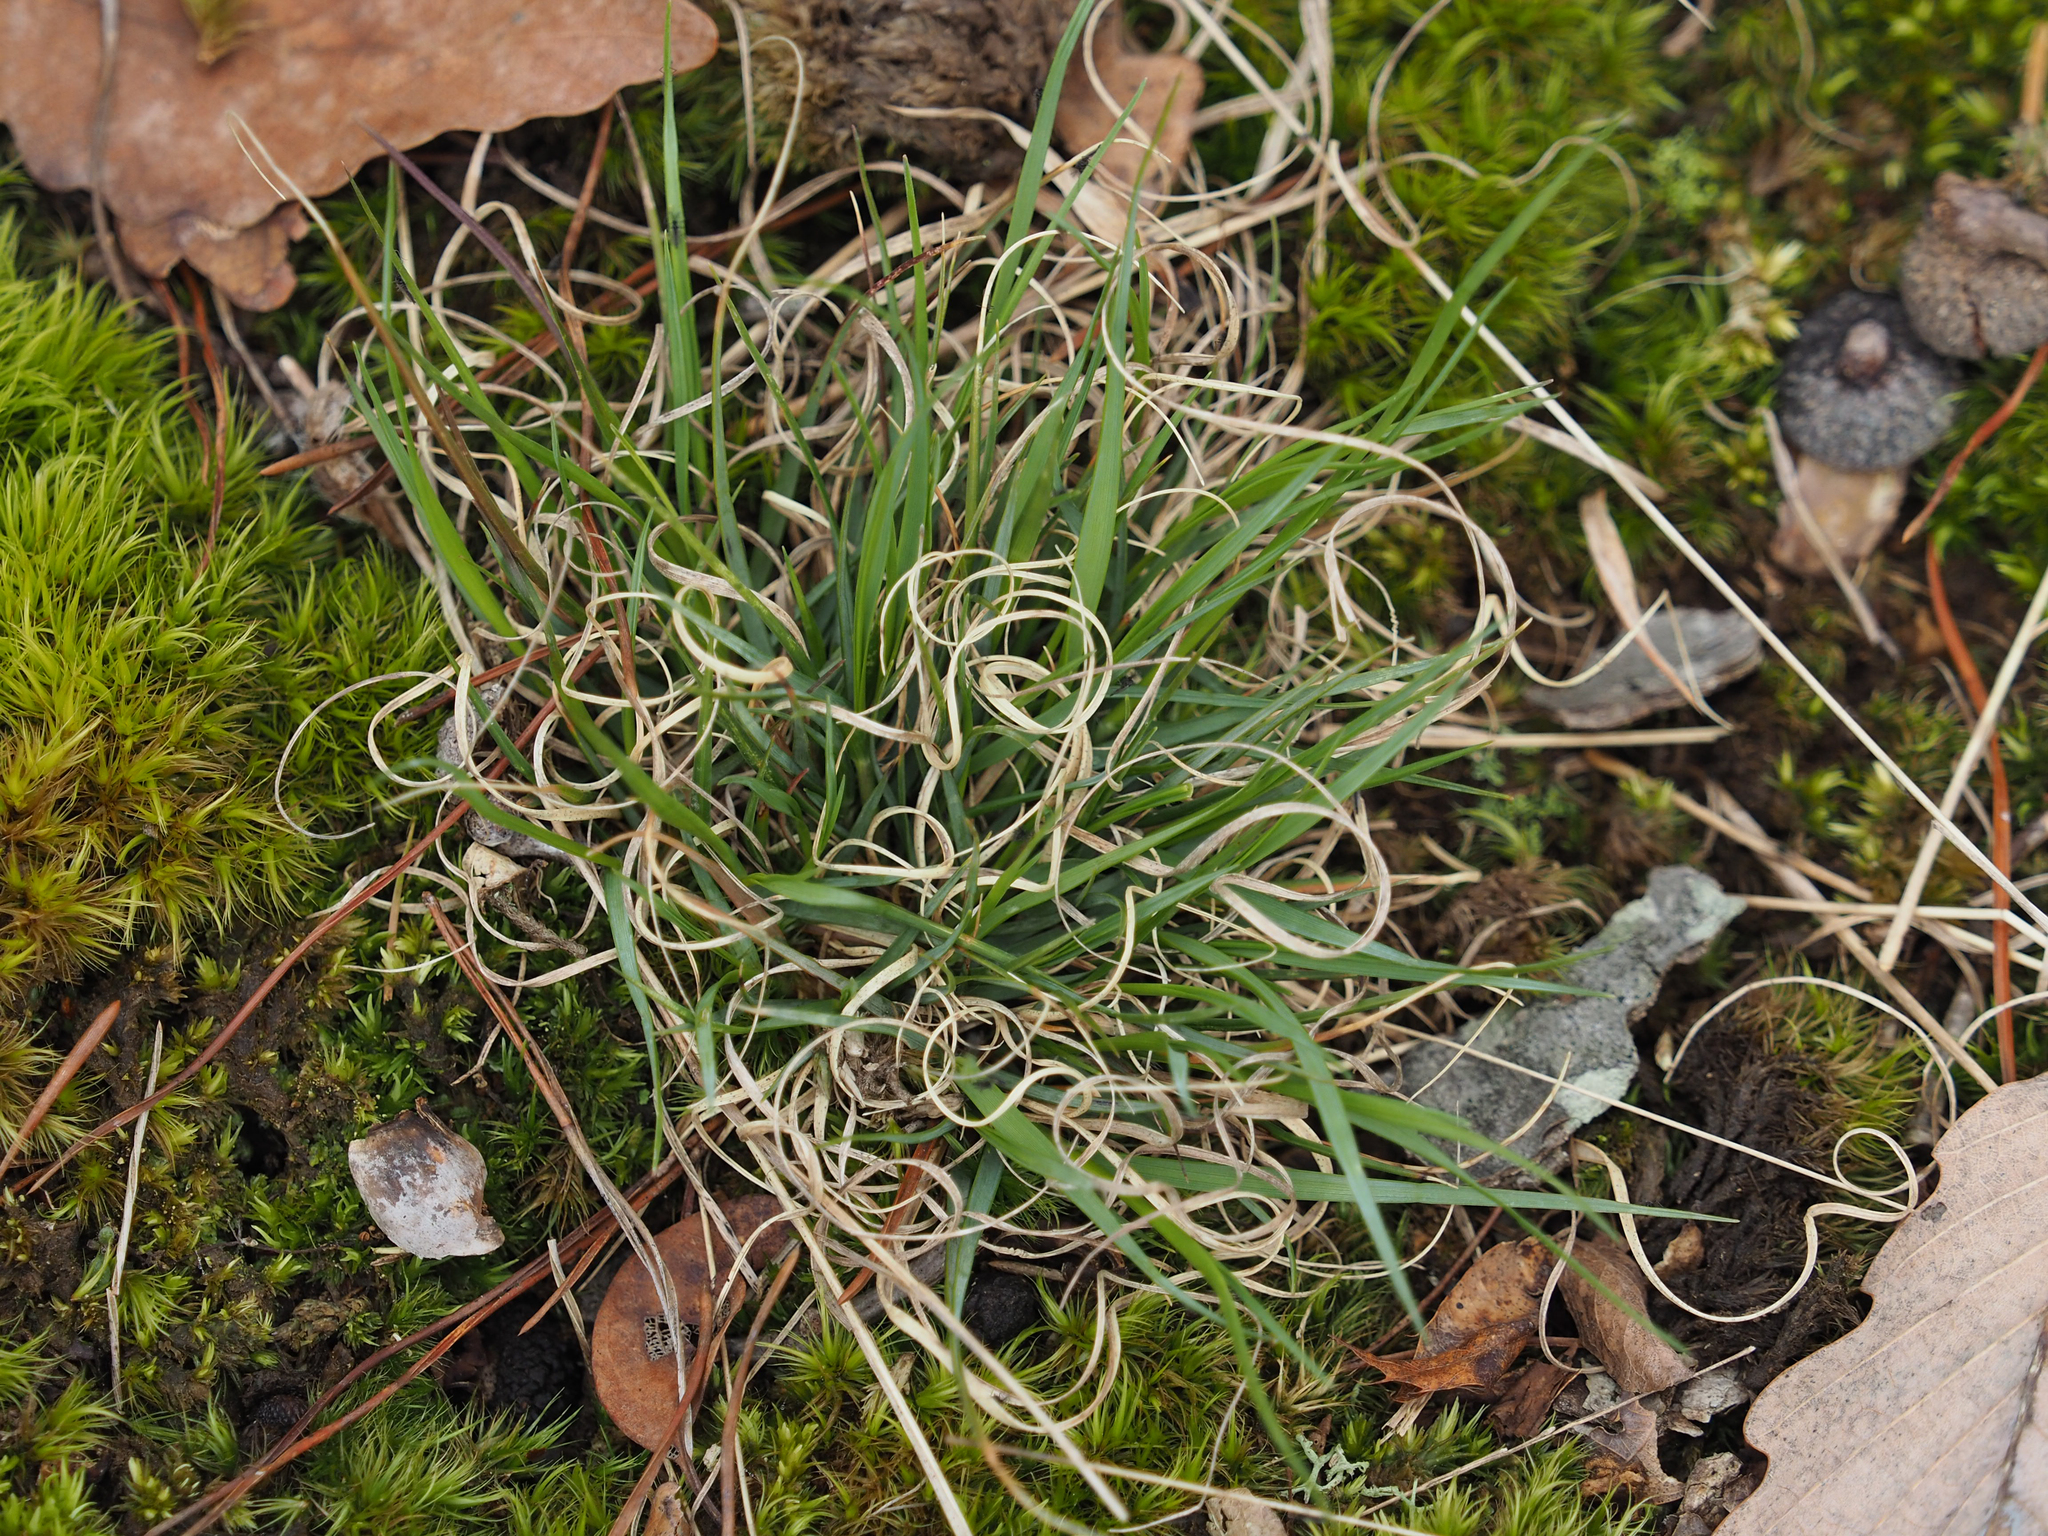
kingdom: Plantae
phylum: Tracheophyta
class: Liliopsida
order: Poales
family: Poaceae
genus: Danthonia
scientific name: Danthonia spicata
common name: Common wild oatgrass
